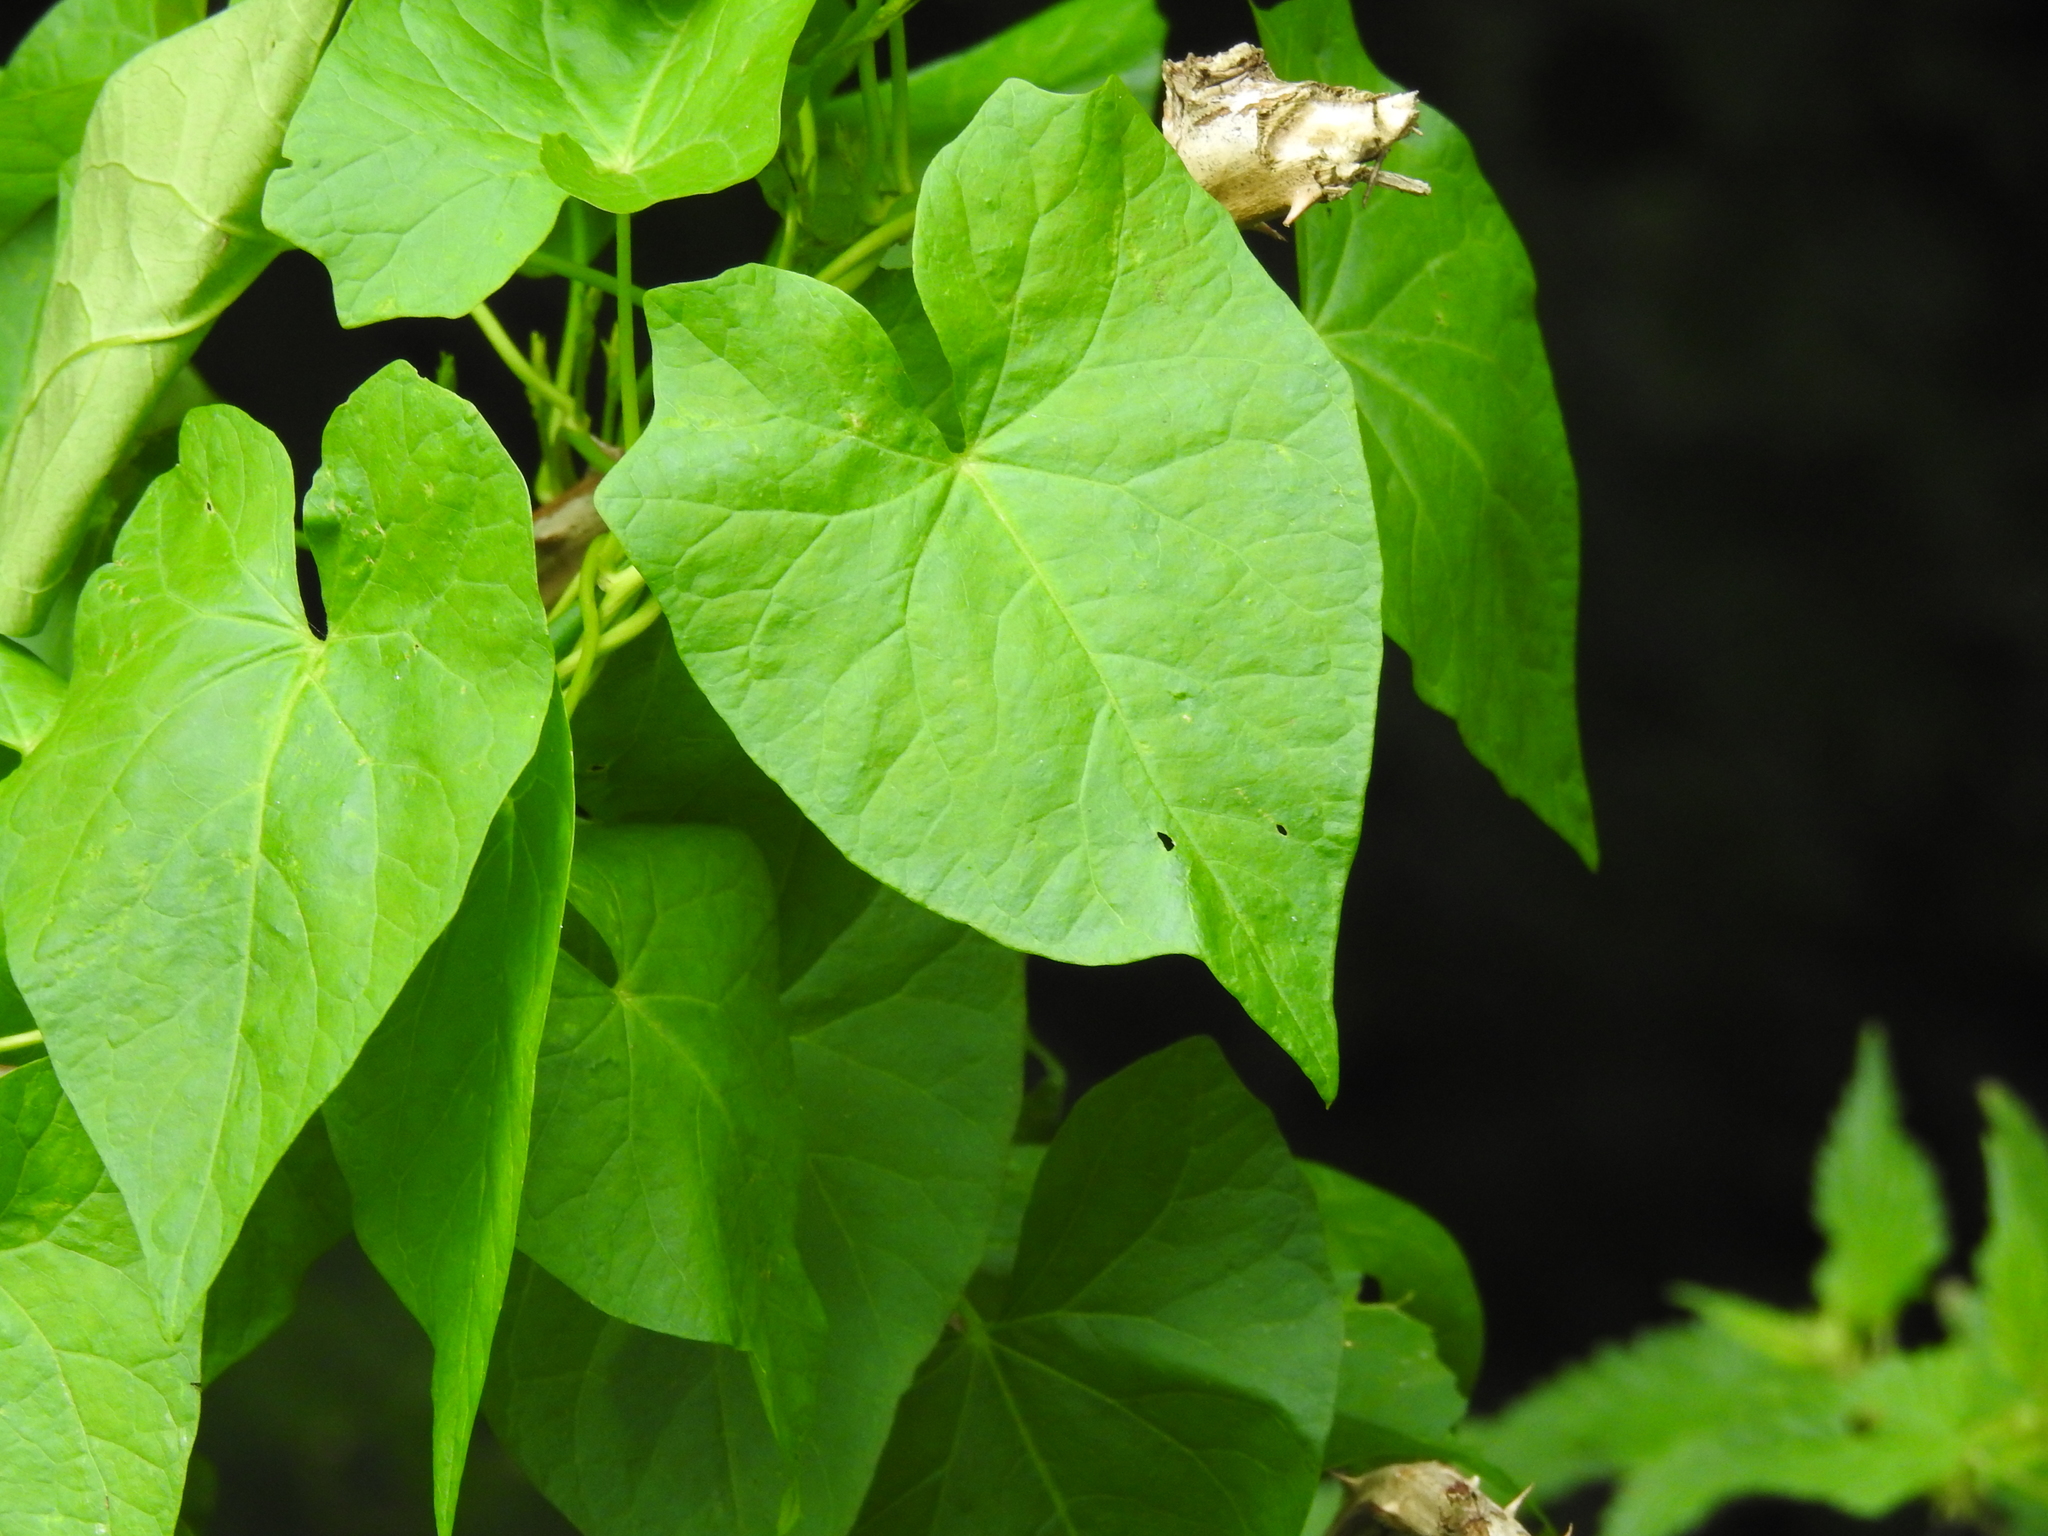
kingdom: Plantae
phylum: Tracheophyta
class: Magnoliopsida
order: Solanales
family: Convolvulaceae
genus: Calystegia
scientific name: Calystegia
